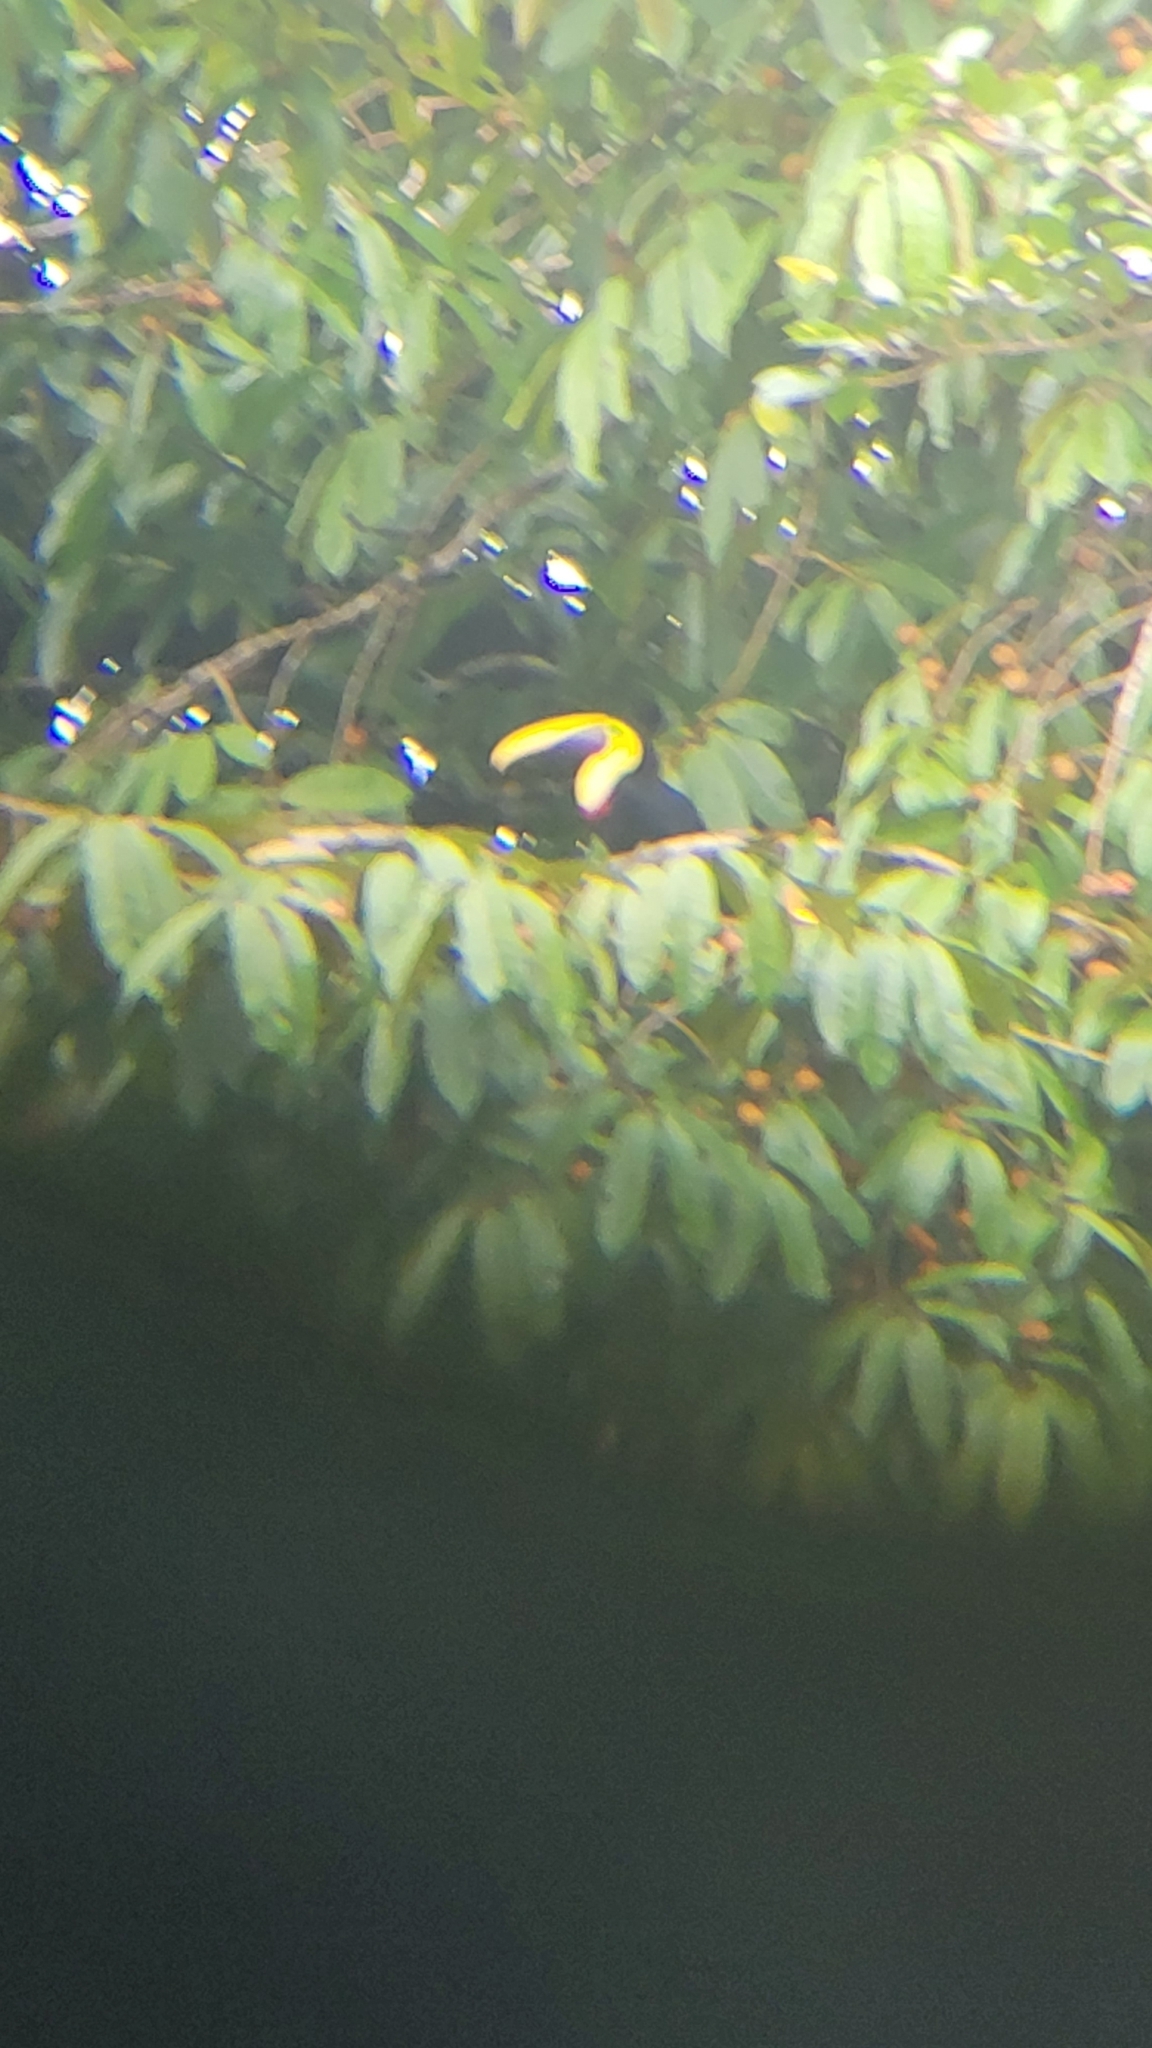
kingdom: Animalia
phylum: Chordata
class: Aves
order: Piciformes
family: Ramphastidae
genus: Ramphastos
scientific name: Ramphastos ambiguus
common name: Yellow-throated toucan
